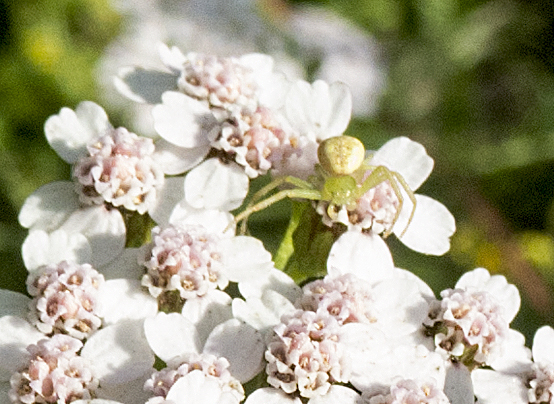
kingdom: Animalia
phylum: Arthropoda
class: Arachnida
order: Araneae
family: Thomisidae
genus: Ebrechtella
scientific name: Ebrechtella tricuspidata
